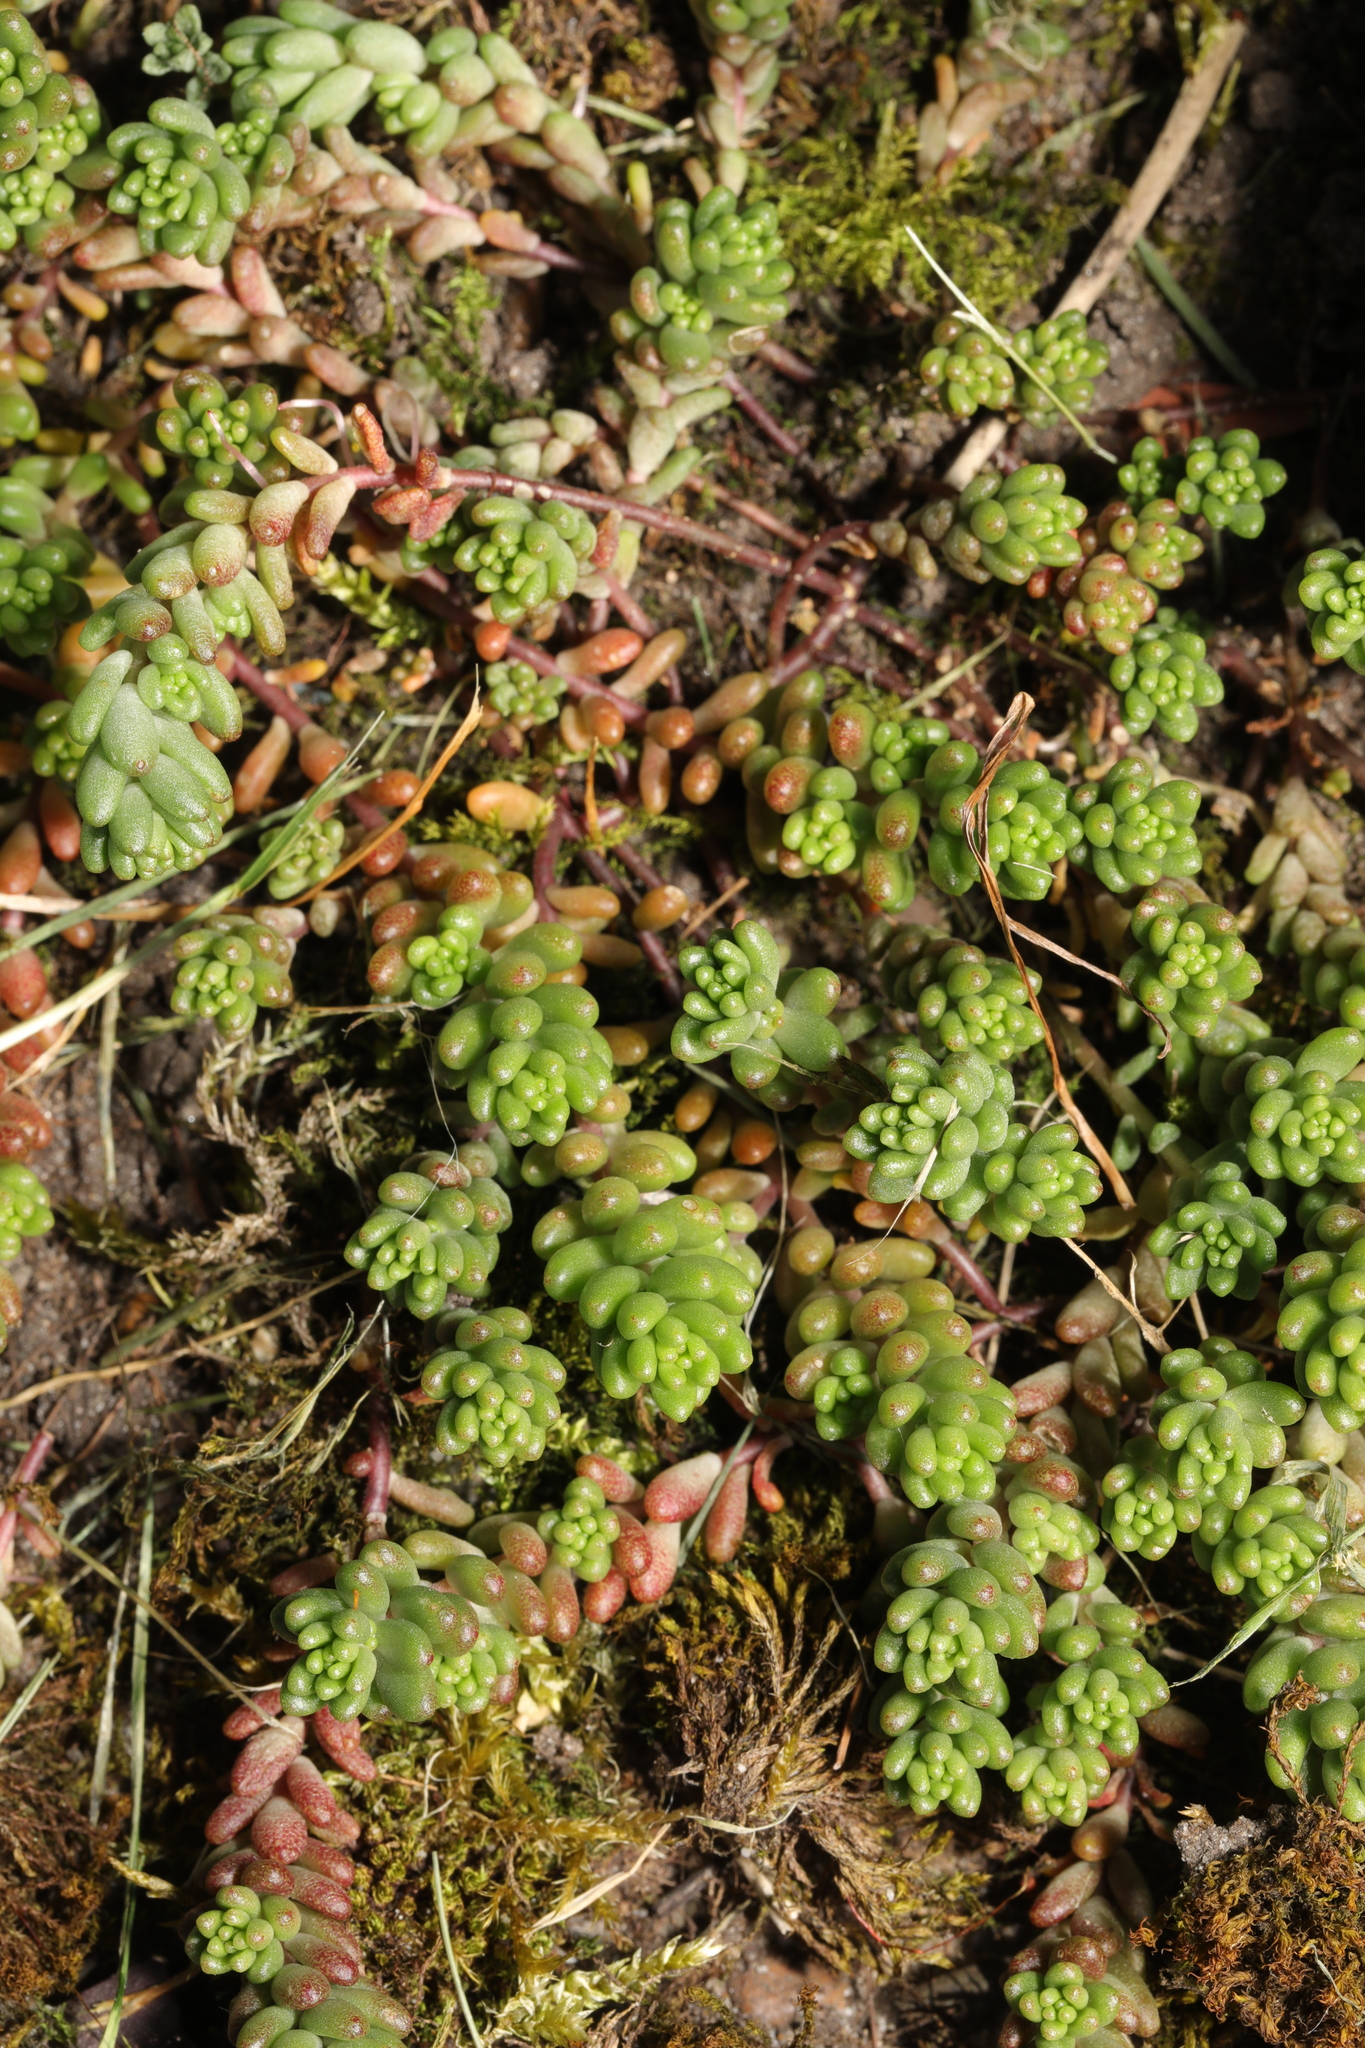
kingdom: Plantae
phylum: Tracheophyta
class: Magnoliopsida
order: Saxifragales
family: Crassulaceae
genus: Sedum
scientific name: Sedum album
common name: White stonecrop
